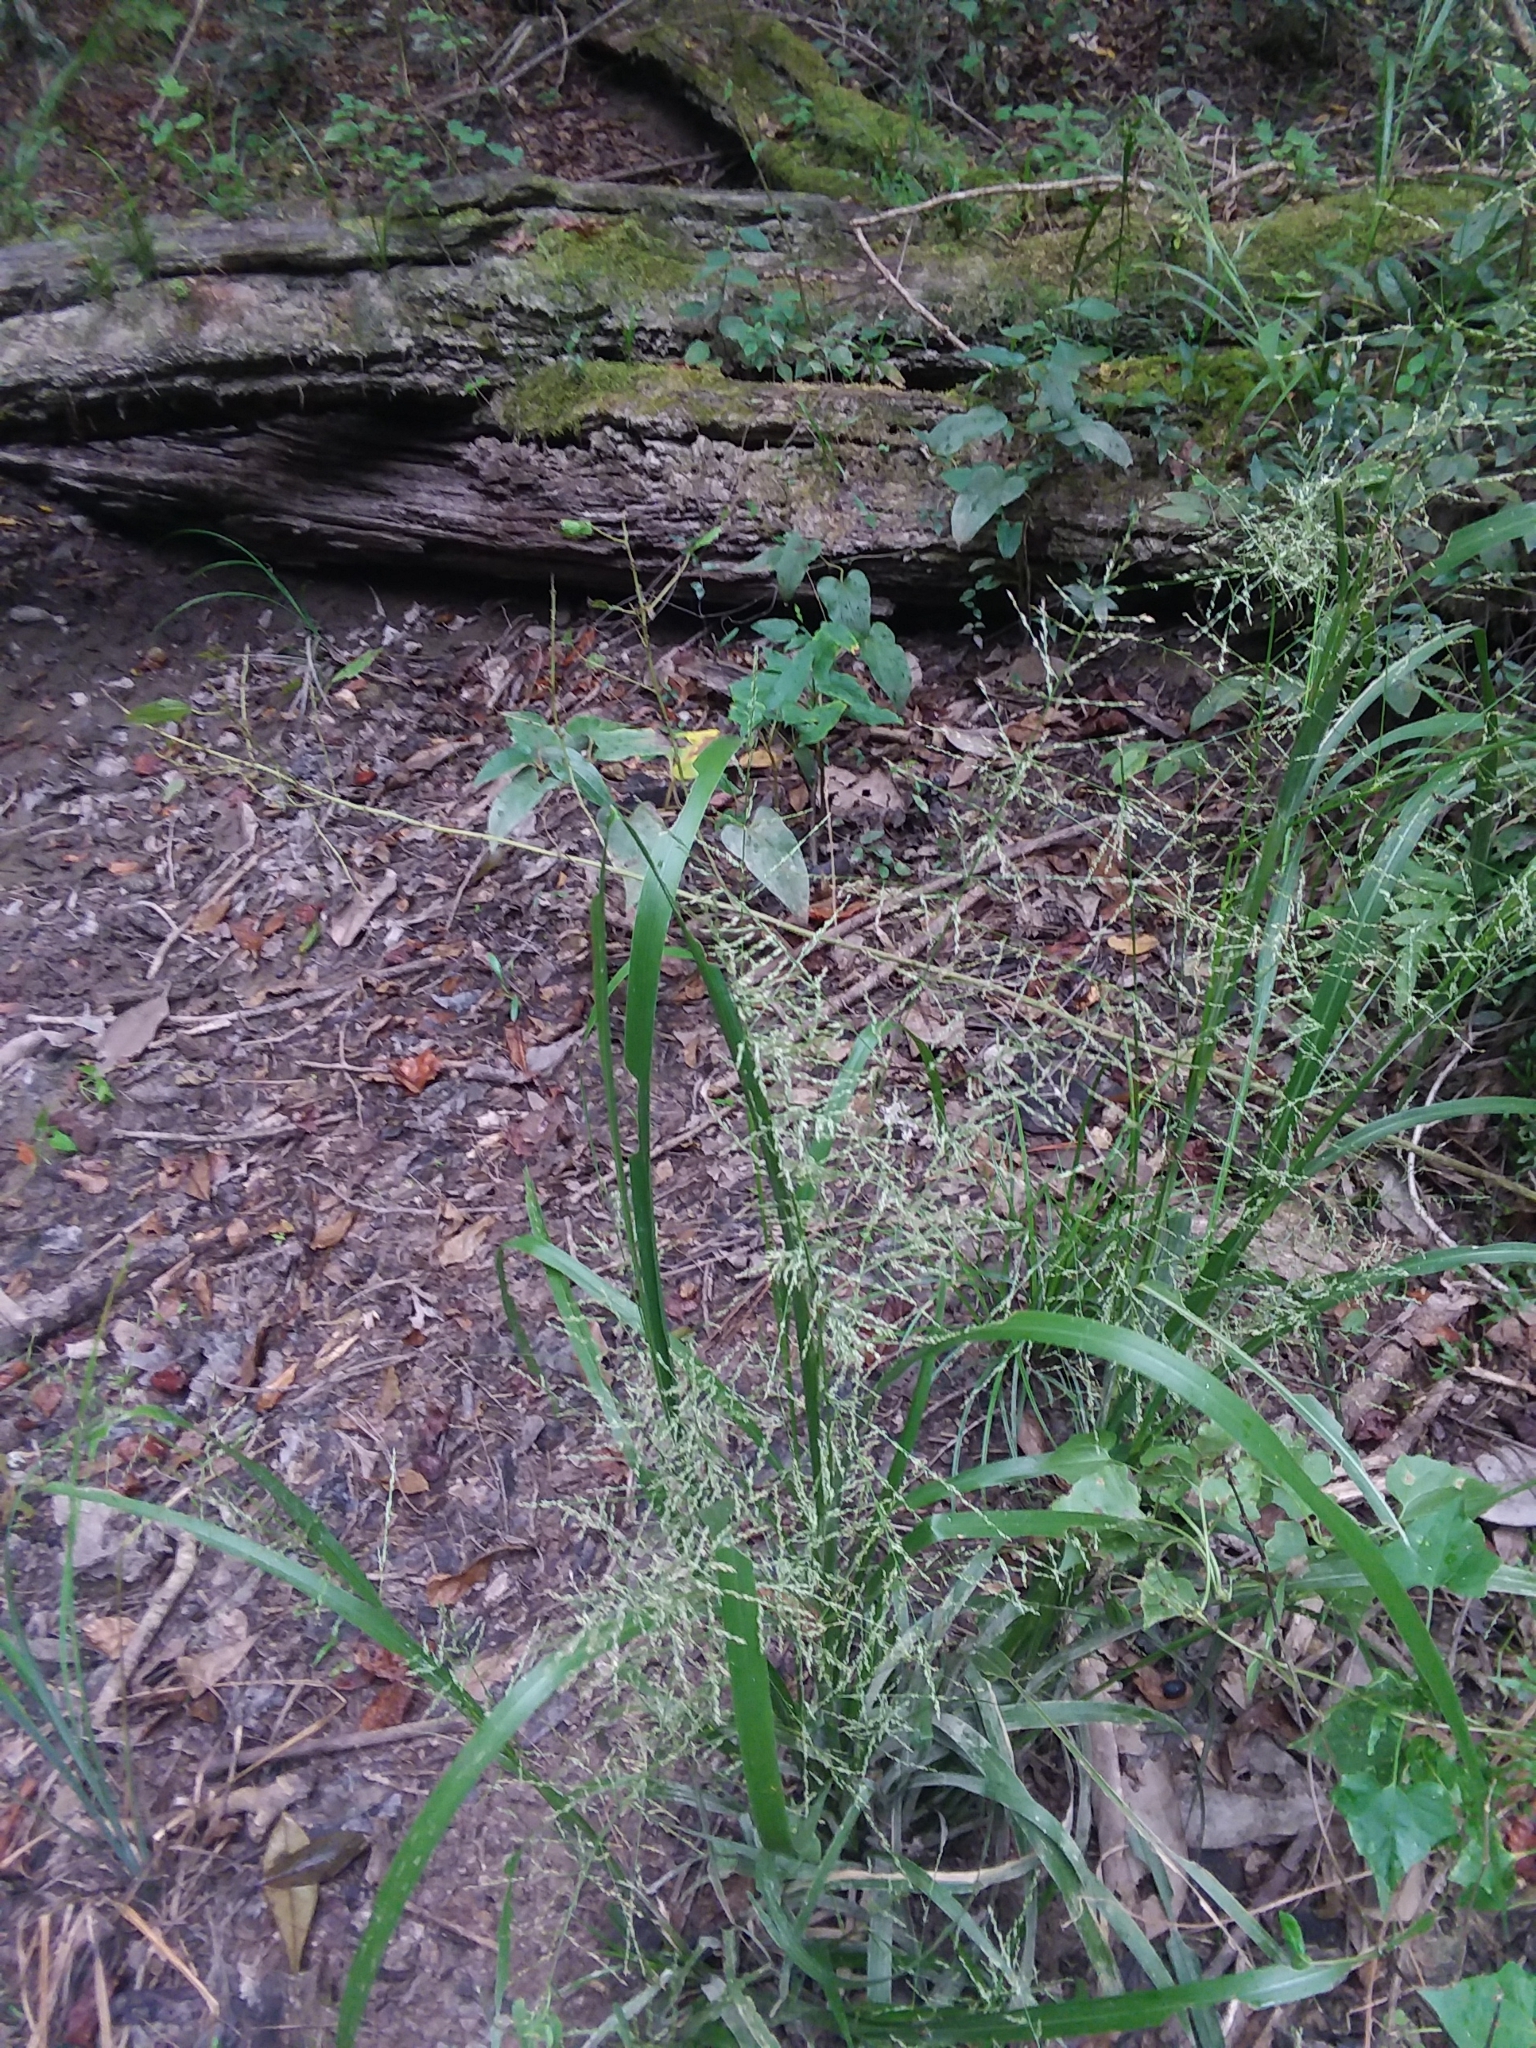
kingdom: Plantae
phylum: Tracheophyta
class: Liliopsida
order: Poales
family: Poaceae
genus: Coleataenia
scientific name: Coleataenia rigidula
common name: Redtop panicgrass
